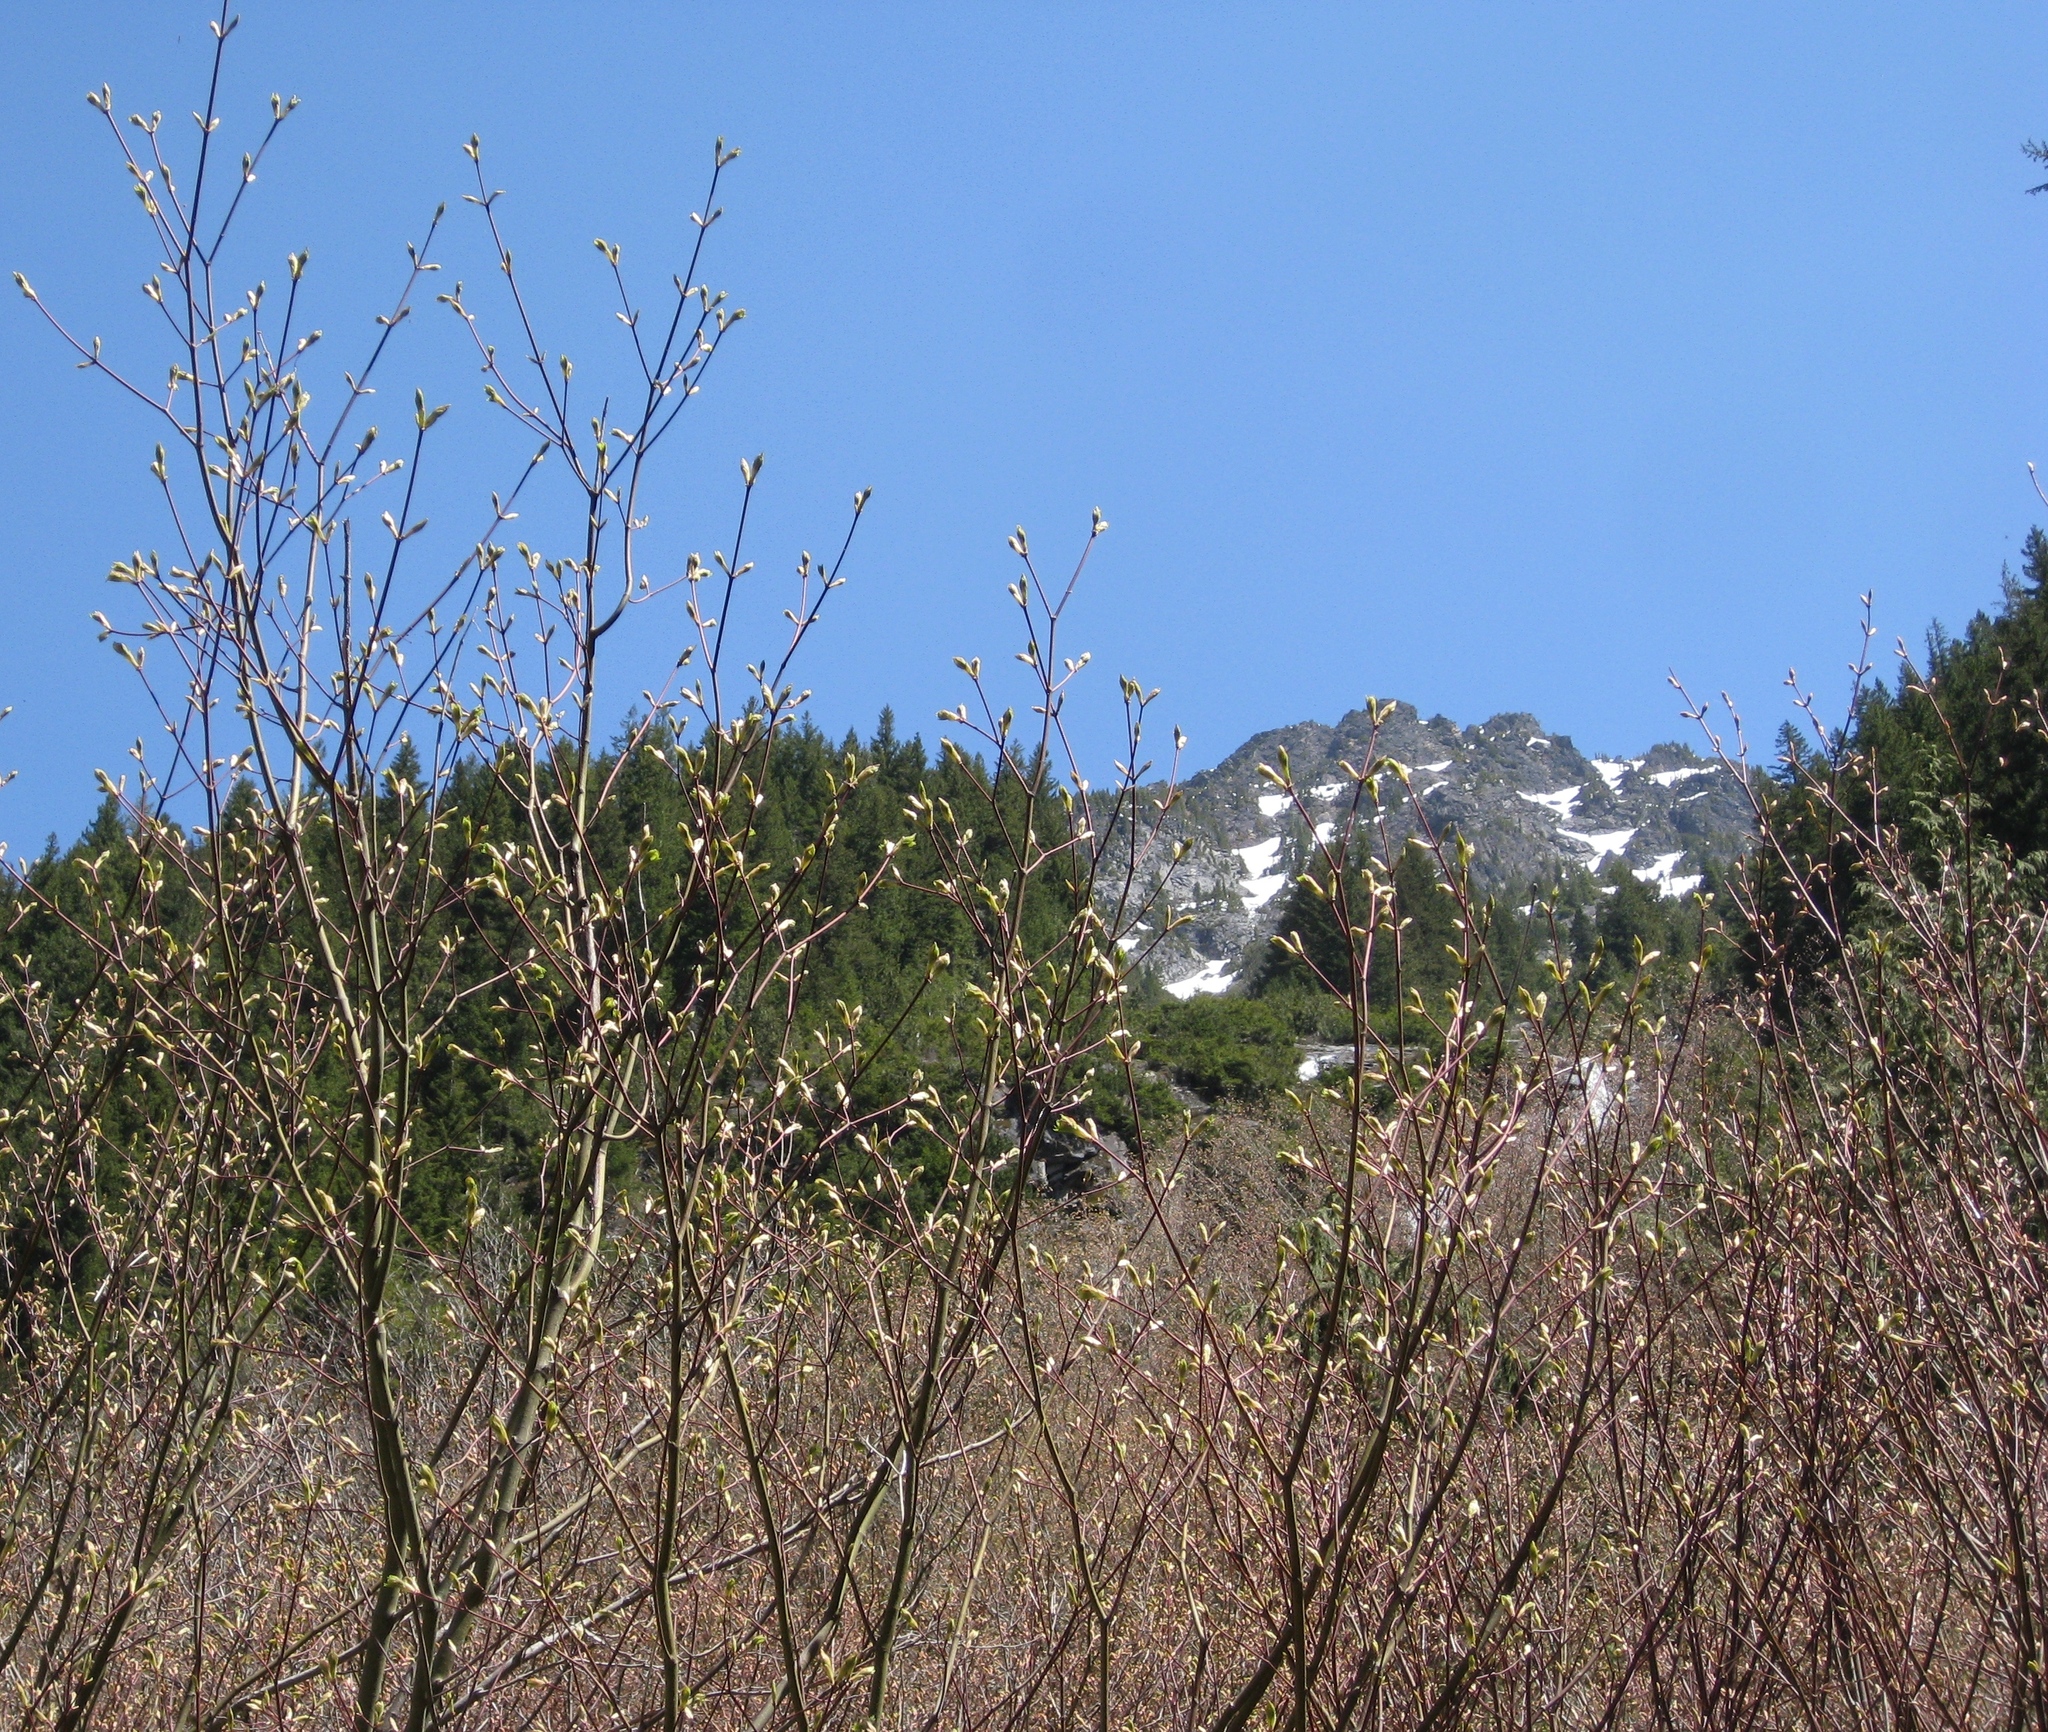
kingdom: Plantae
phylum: Tracheophyta
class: Magnoliopsida
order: Fagales
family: Betulaceae
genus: Alnus
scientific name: Alnus alnobetula
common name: Green alder
